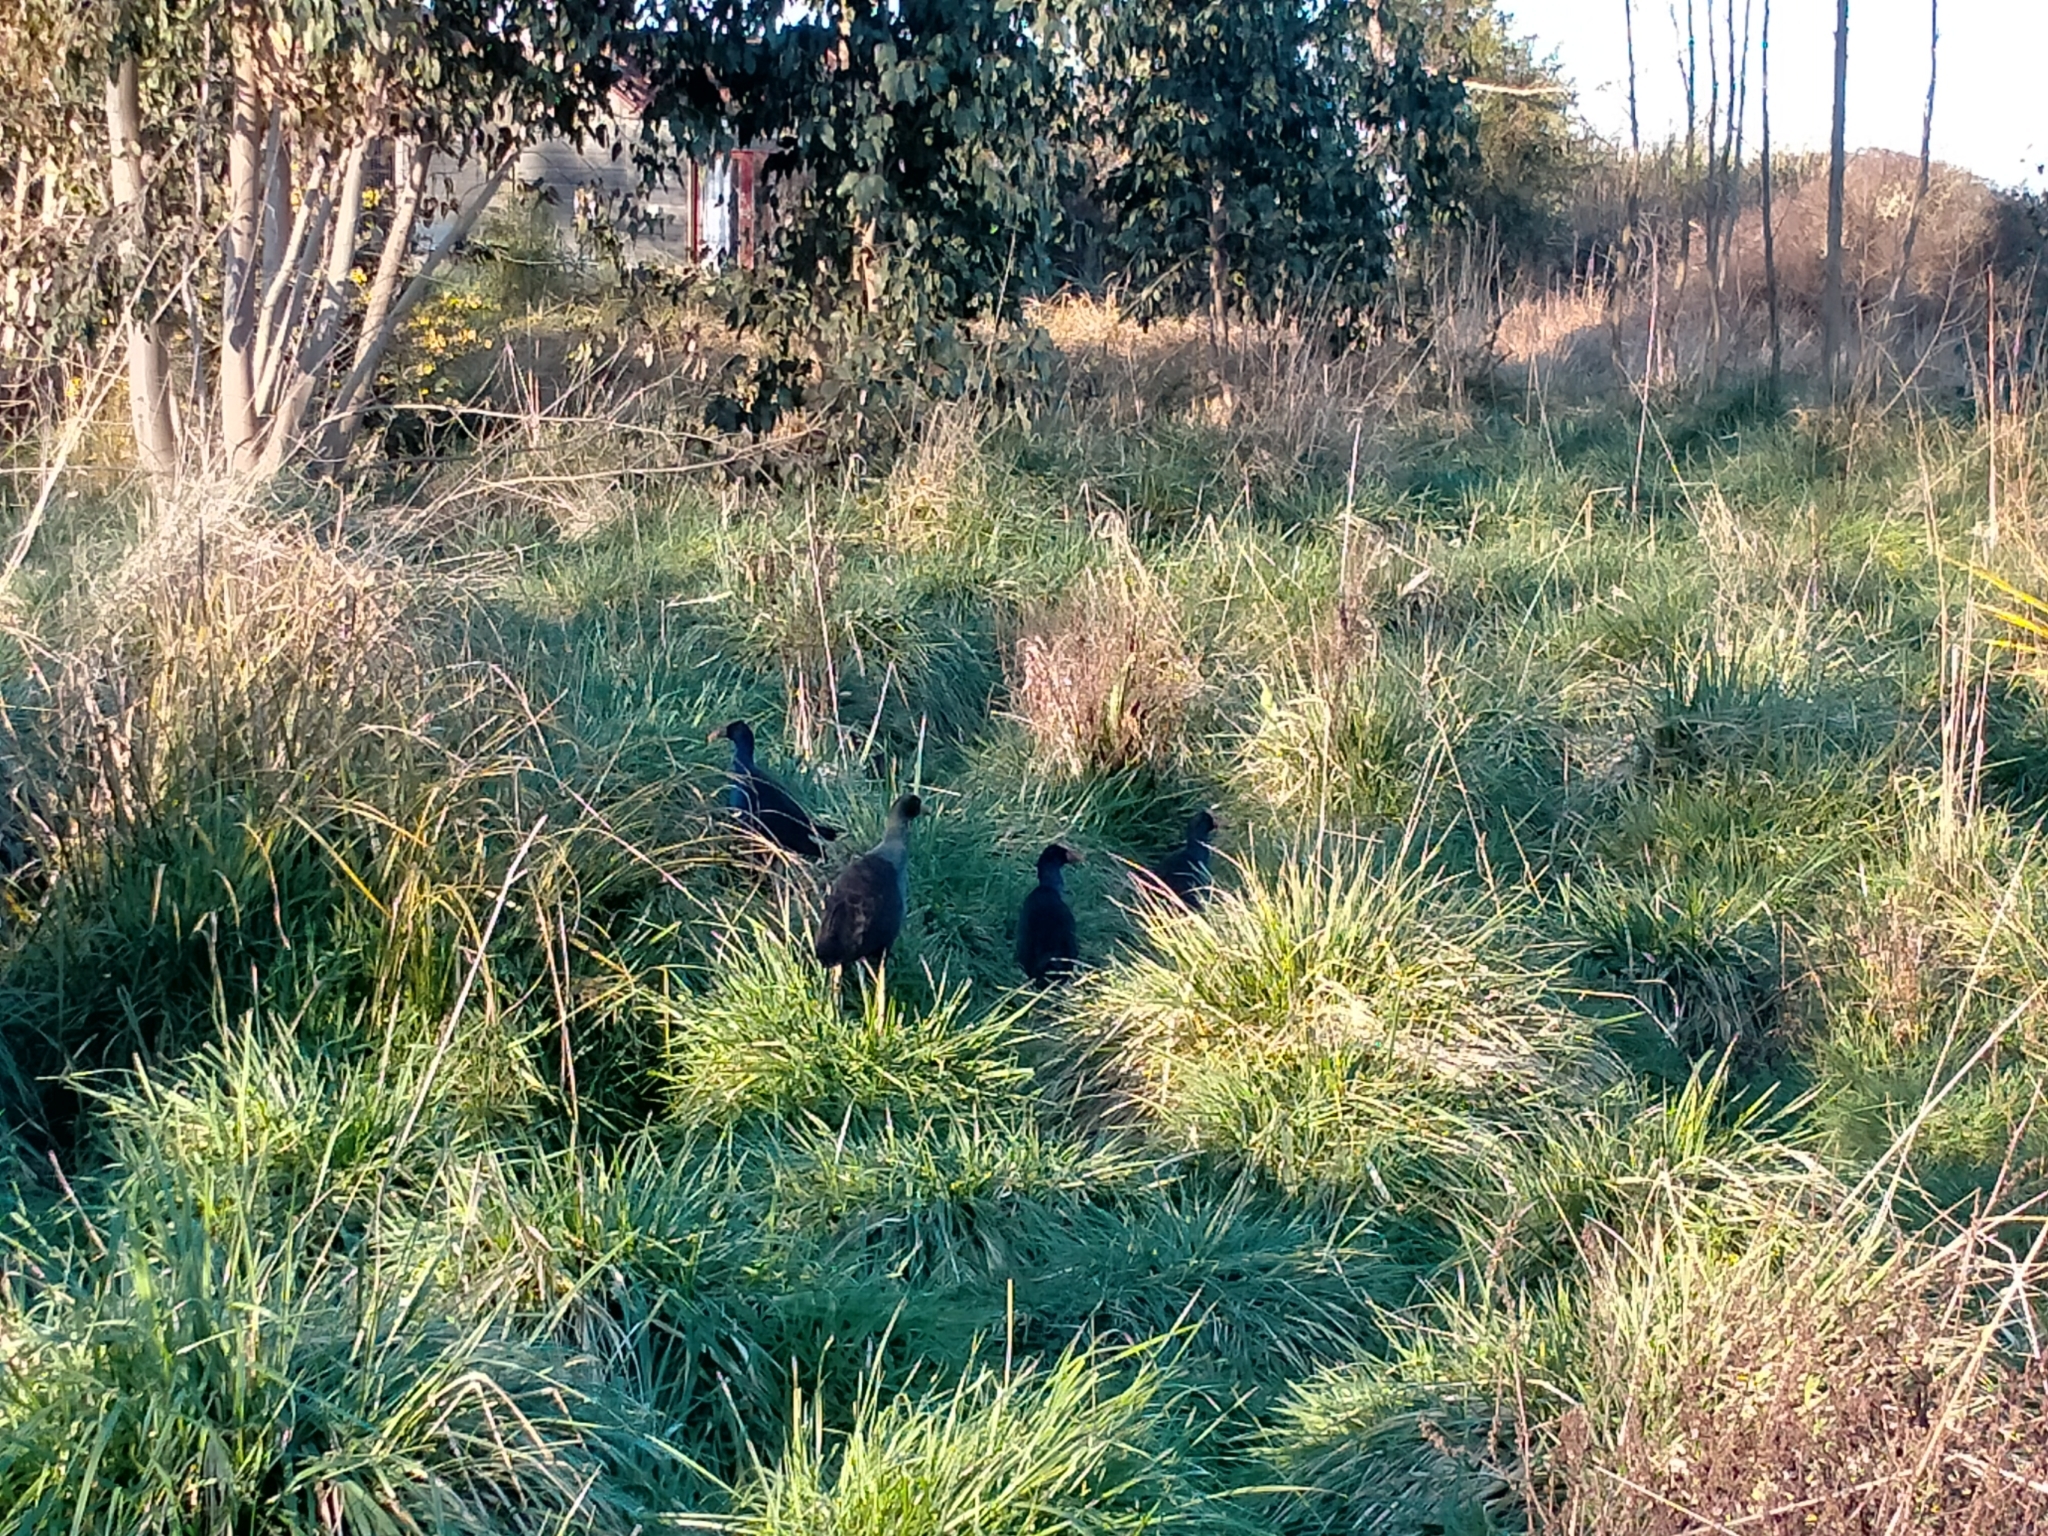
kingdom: Animalia
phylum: Chordata
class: Aves
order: Gruiformes
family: Rallidae
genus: Porphyrio
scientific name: Porphyrio melanotus
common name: Australasian swamphen
